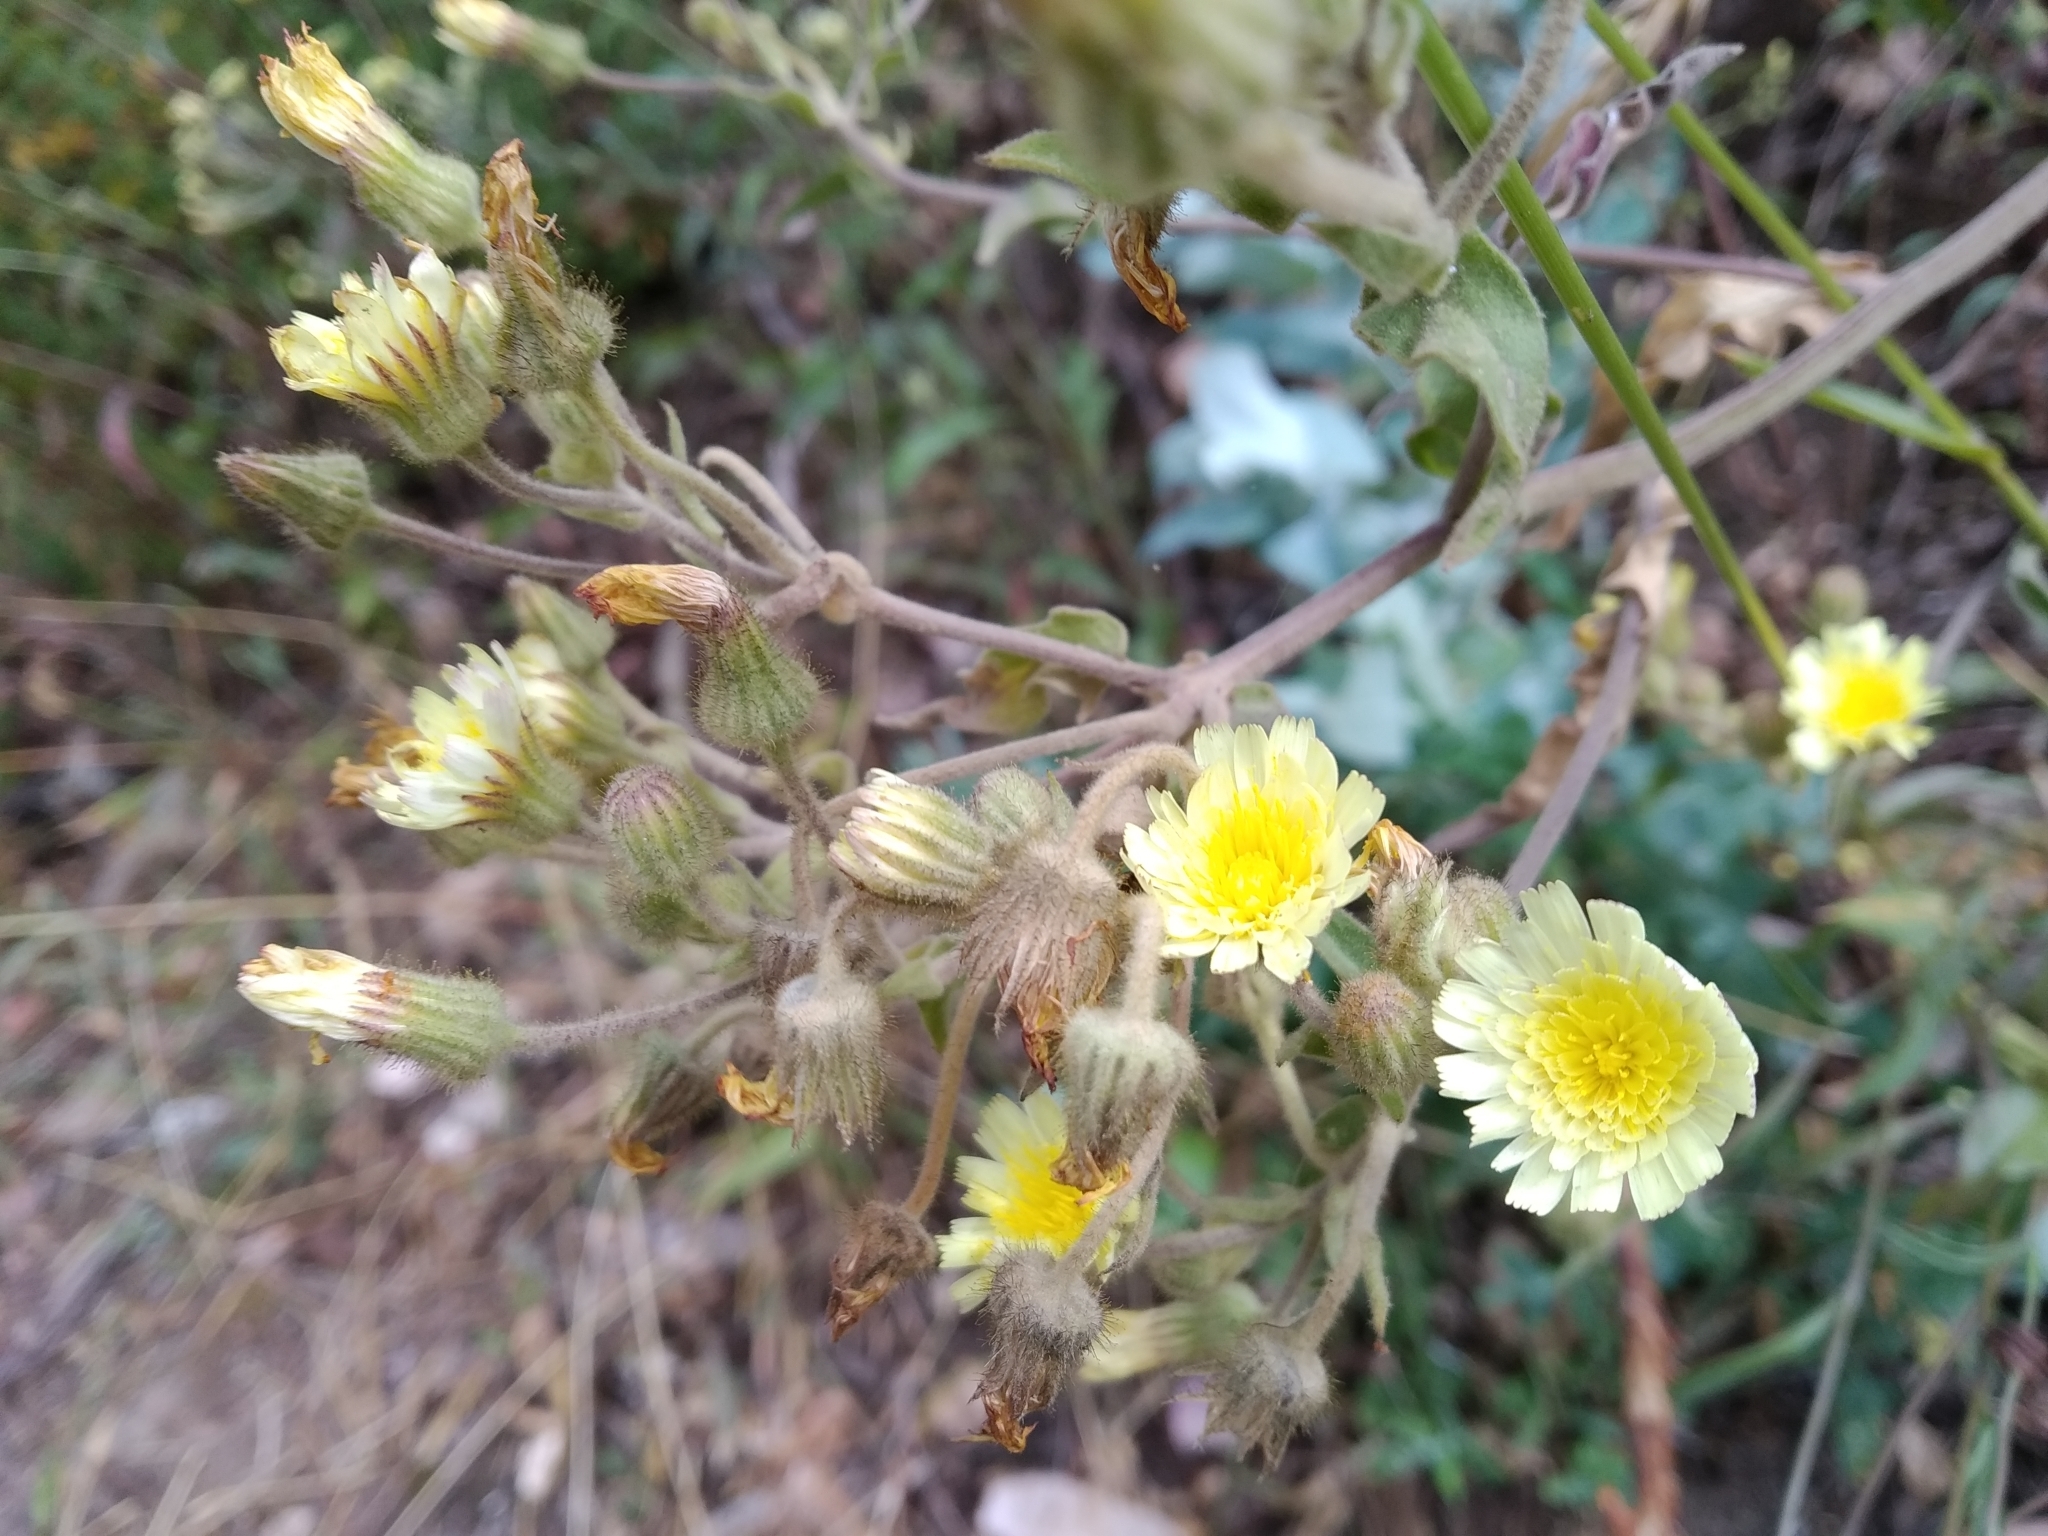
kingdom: Plantae
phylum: Tracheophyta
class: Magnoliopsida
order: Asterales
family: Asteraceae
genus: Andryala
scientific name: Andryala integrifolia
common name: Common andryala
